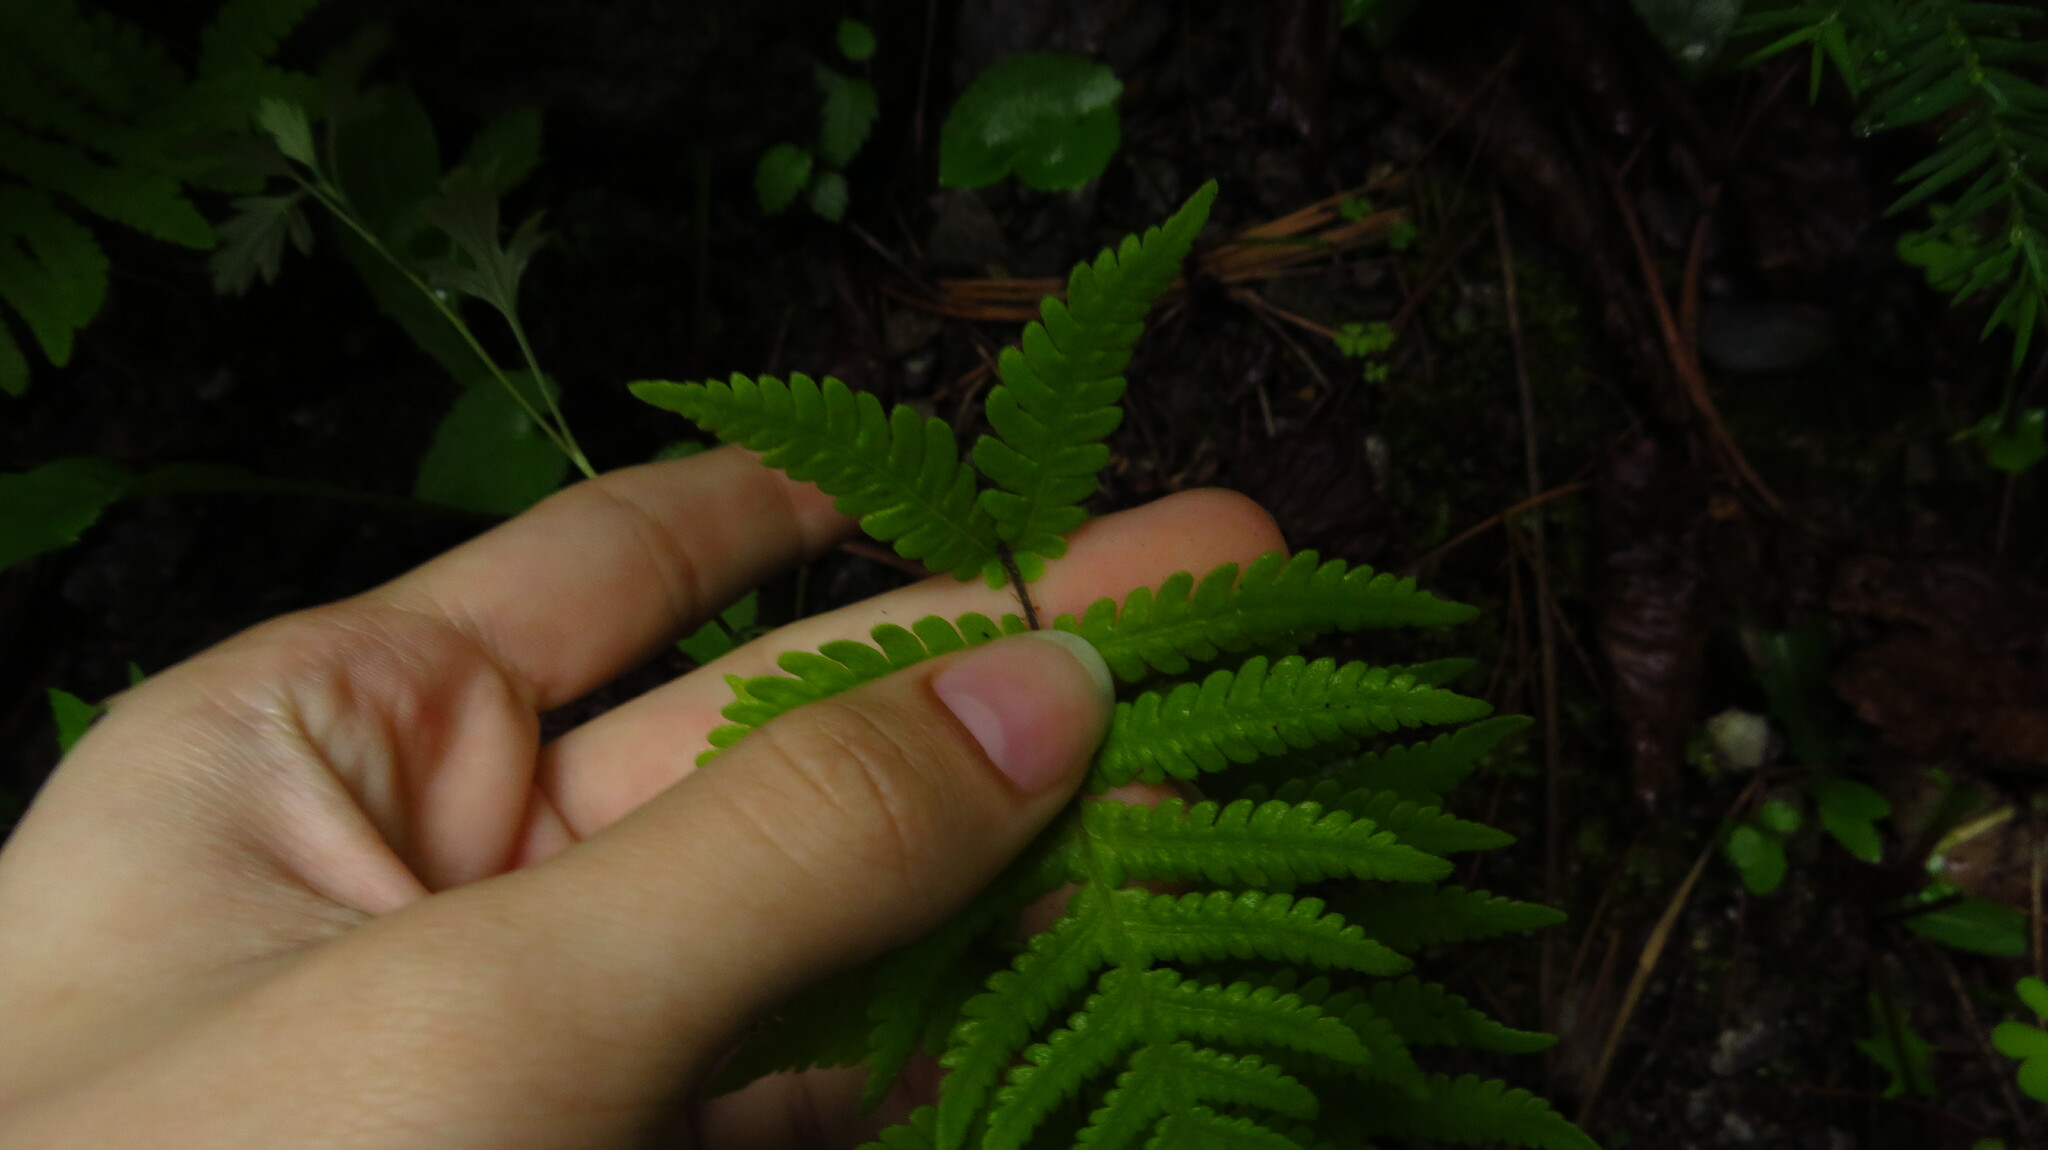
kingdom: Plantae
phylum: Tracheophyta
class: Polypodiopsida
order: Polypodiales
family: Thelypteridaceae
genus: Phegopteris
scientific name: Phegopteris connectilis
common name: Beech fern
